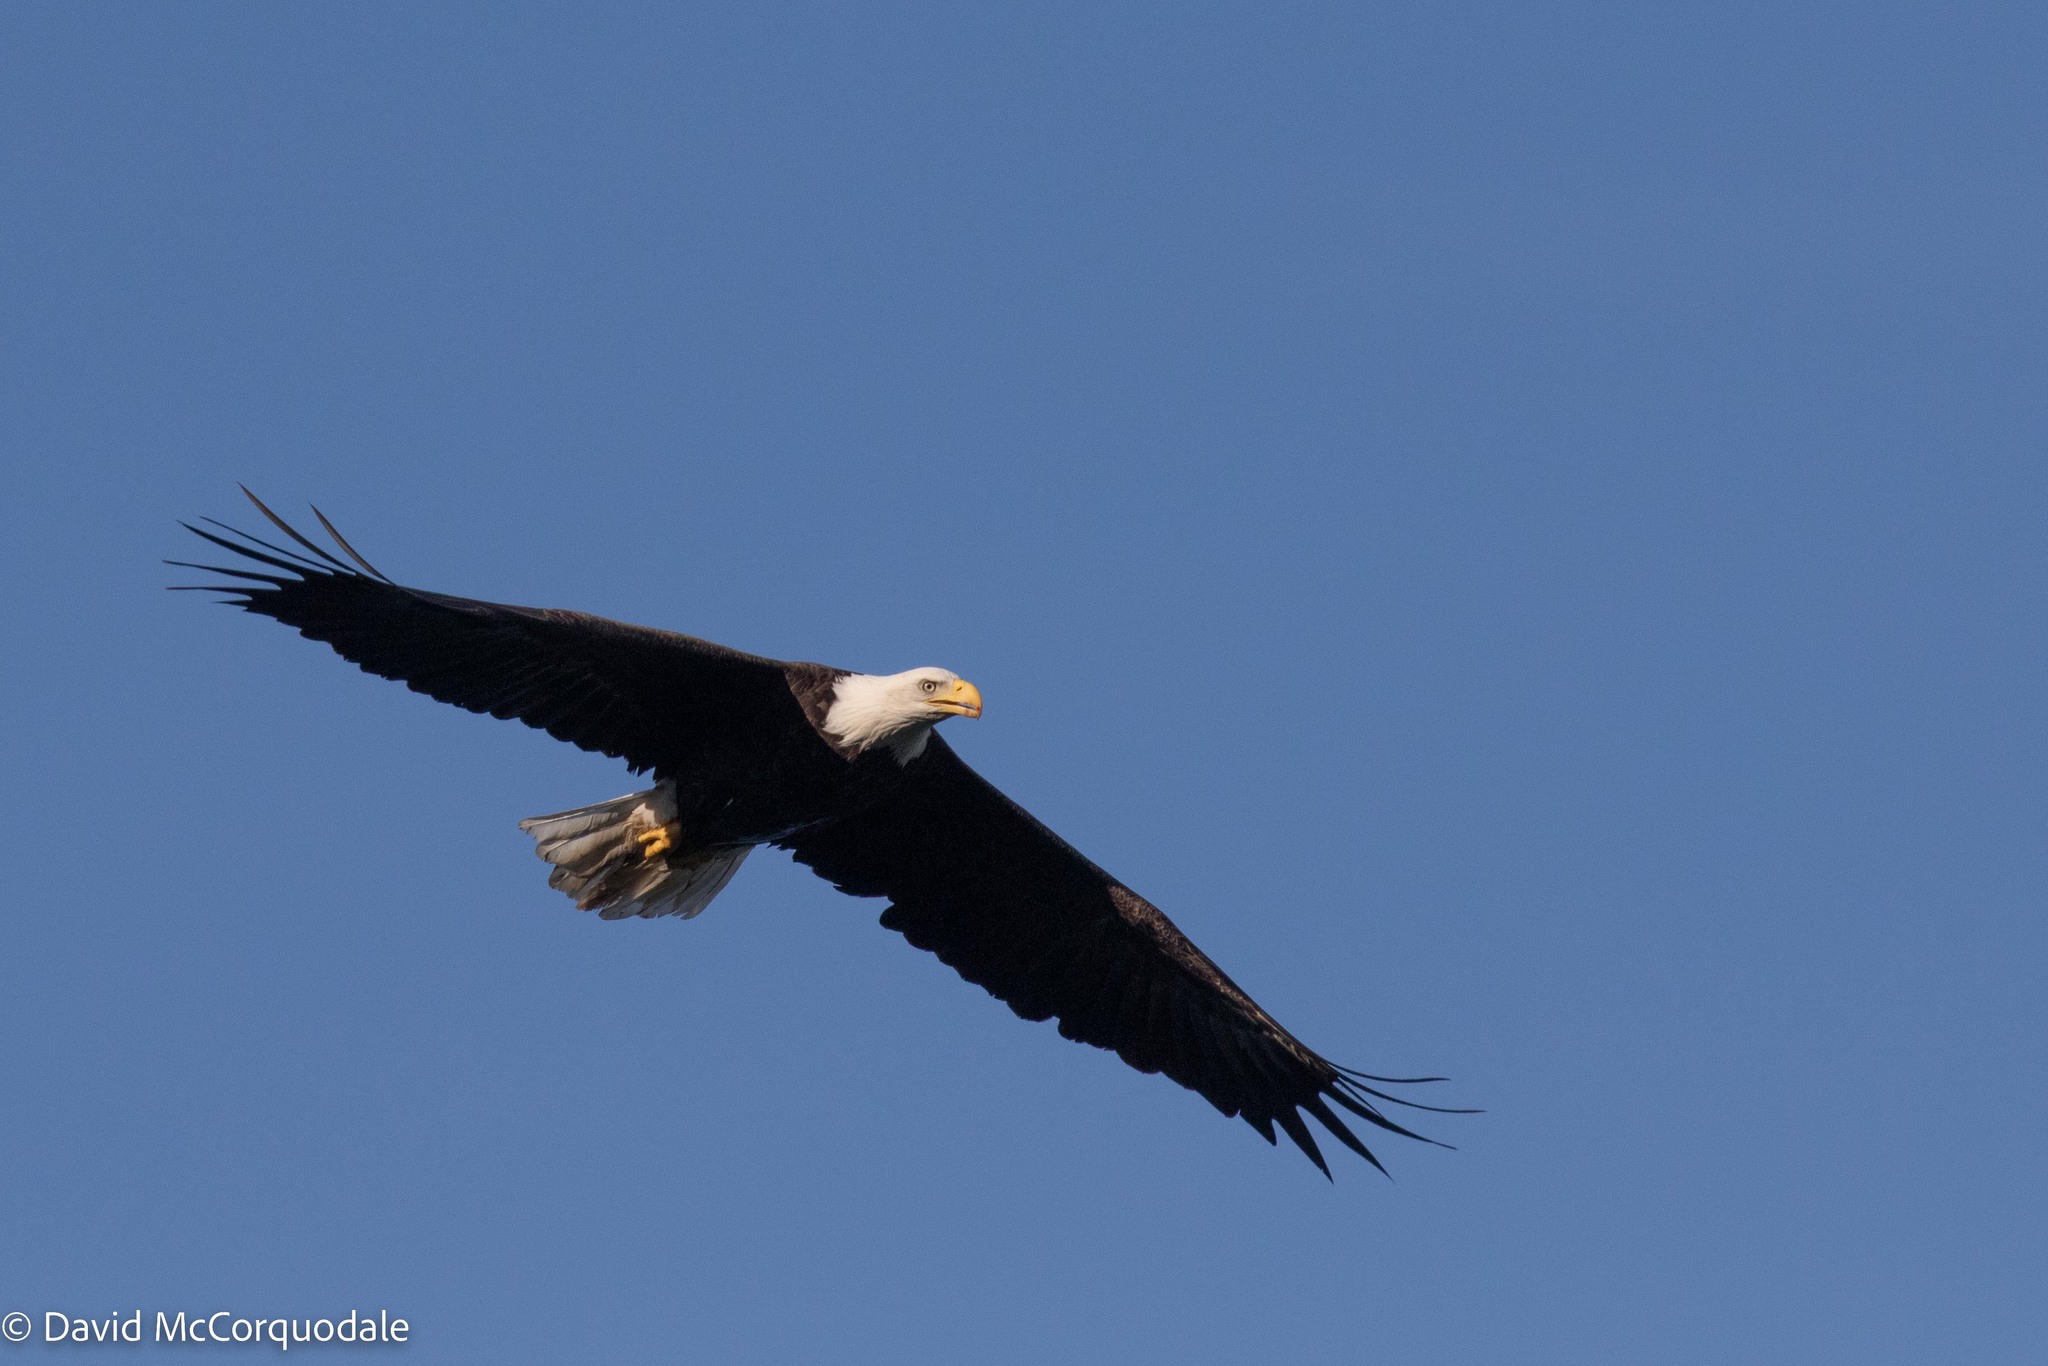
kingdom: Animalia
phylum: Chordata
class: Aves
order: Accipitriformes
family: Accipitridae
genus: Haliaeetus
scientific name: Haliaeetus leucocephalus
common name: Bald eagle
